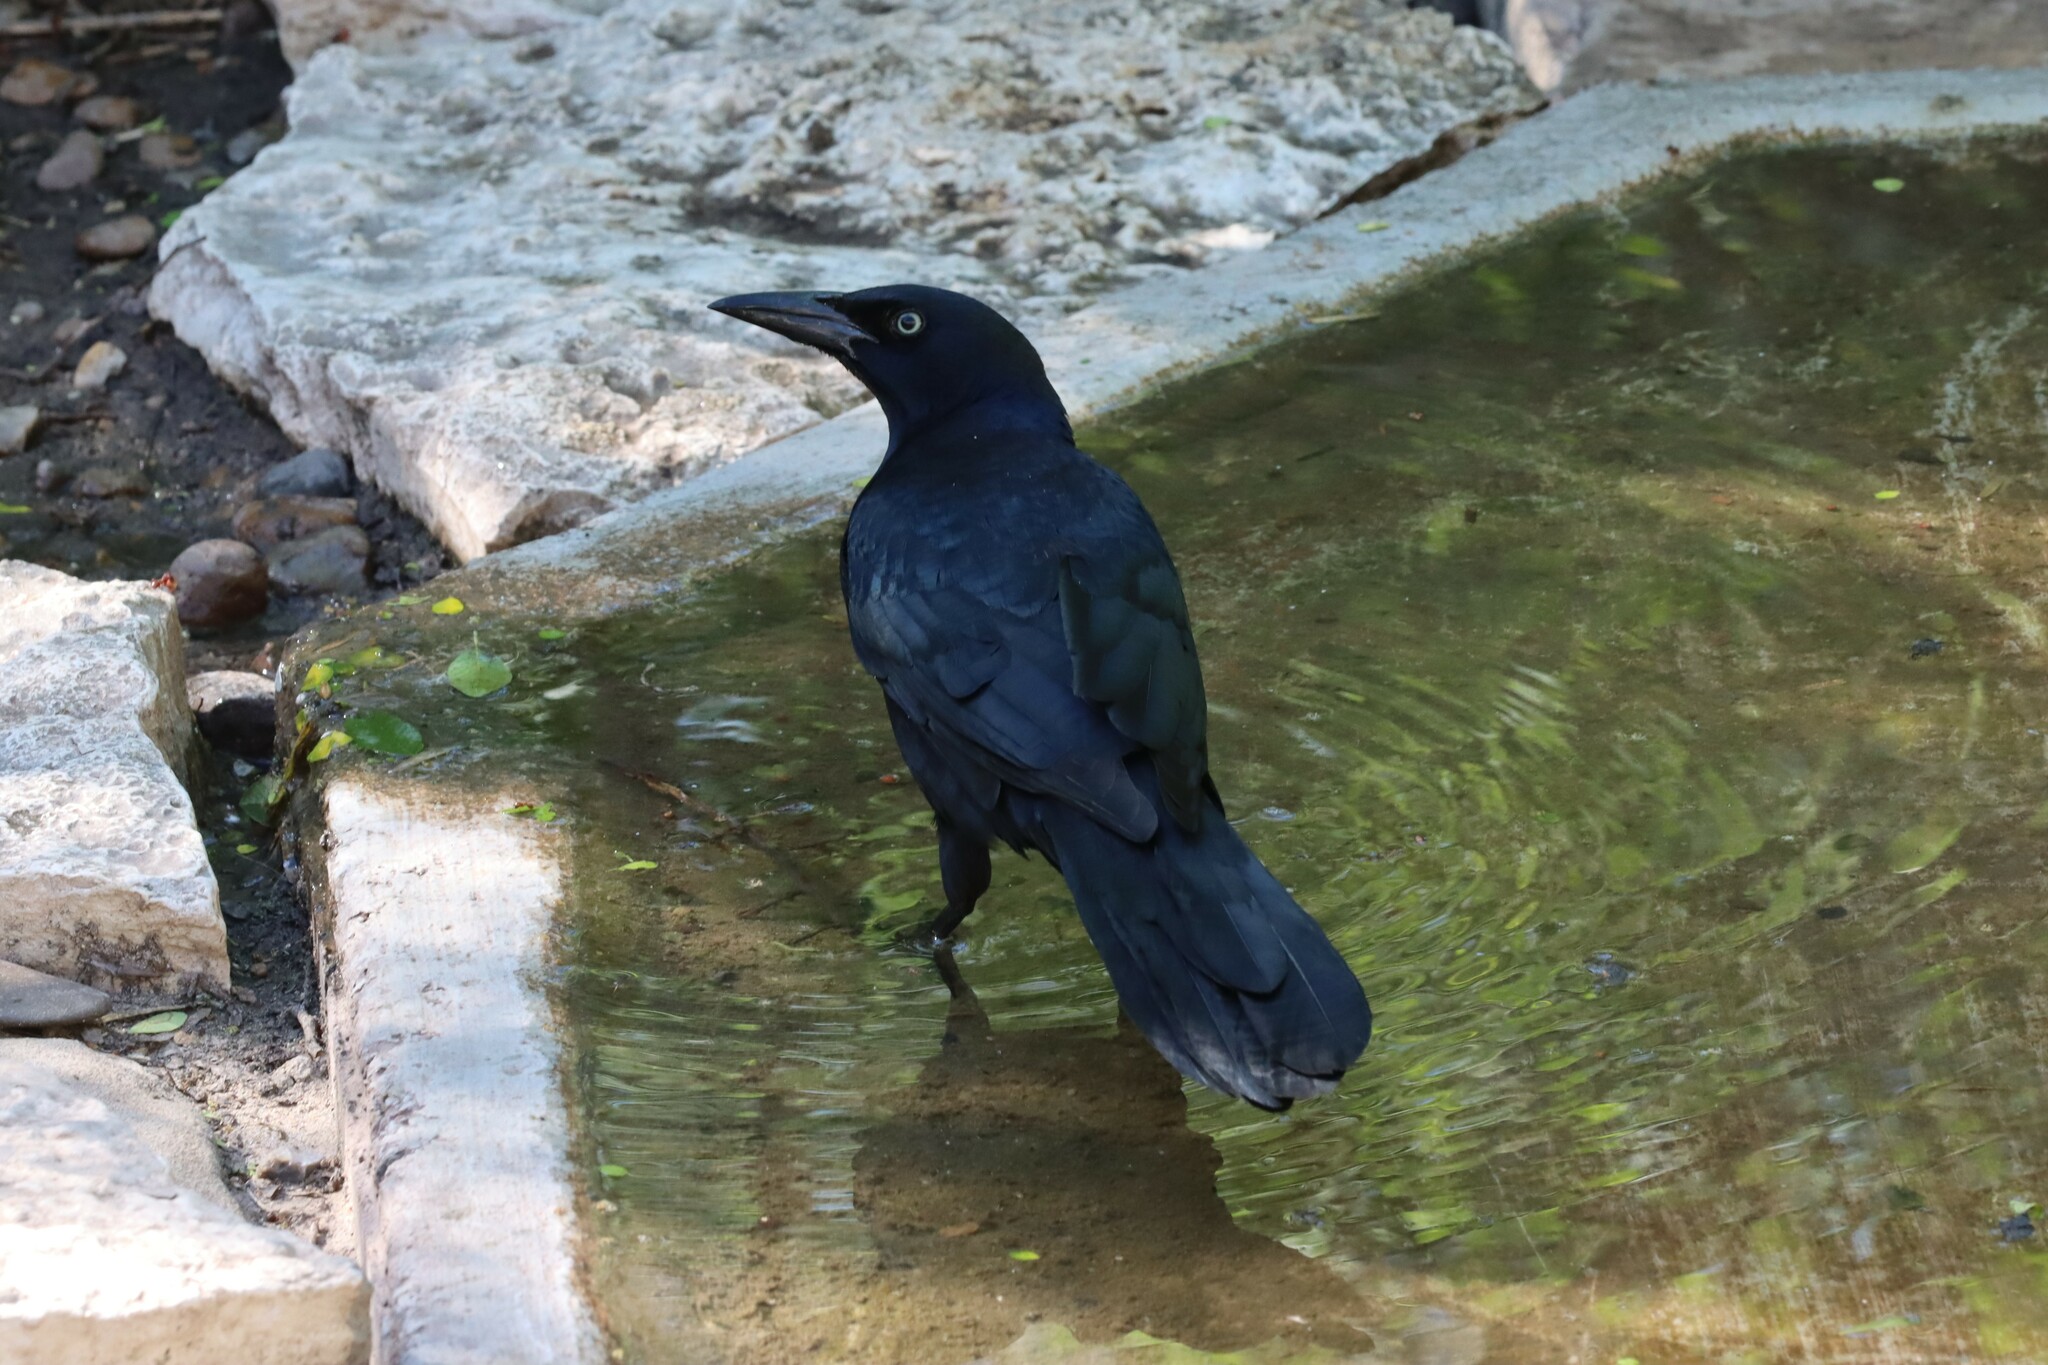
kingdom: Animalia
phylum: Chordata
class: Aves
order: Passeriformes
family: Icteridae
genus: Quiscalus
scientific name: Quiscalus mexicanus
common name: Great-tailed grackle
